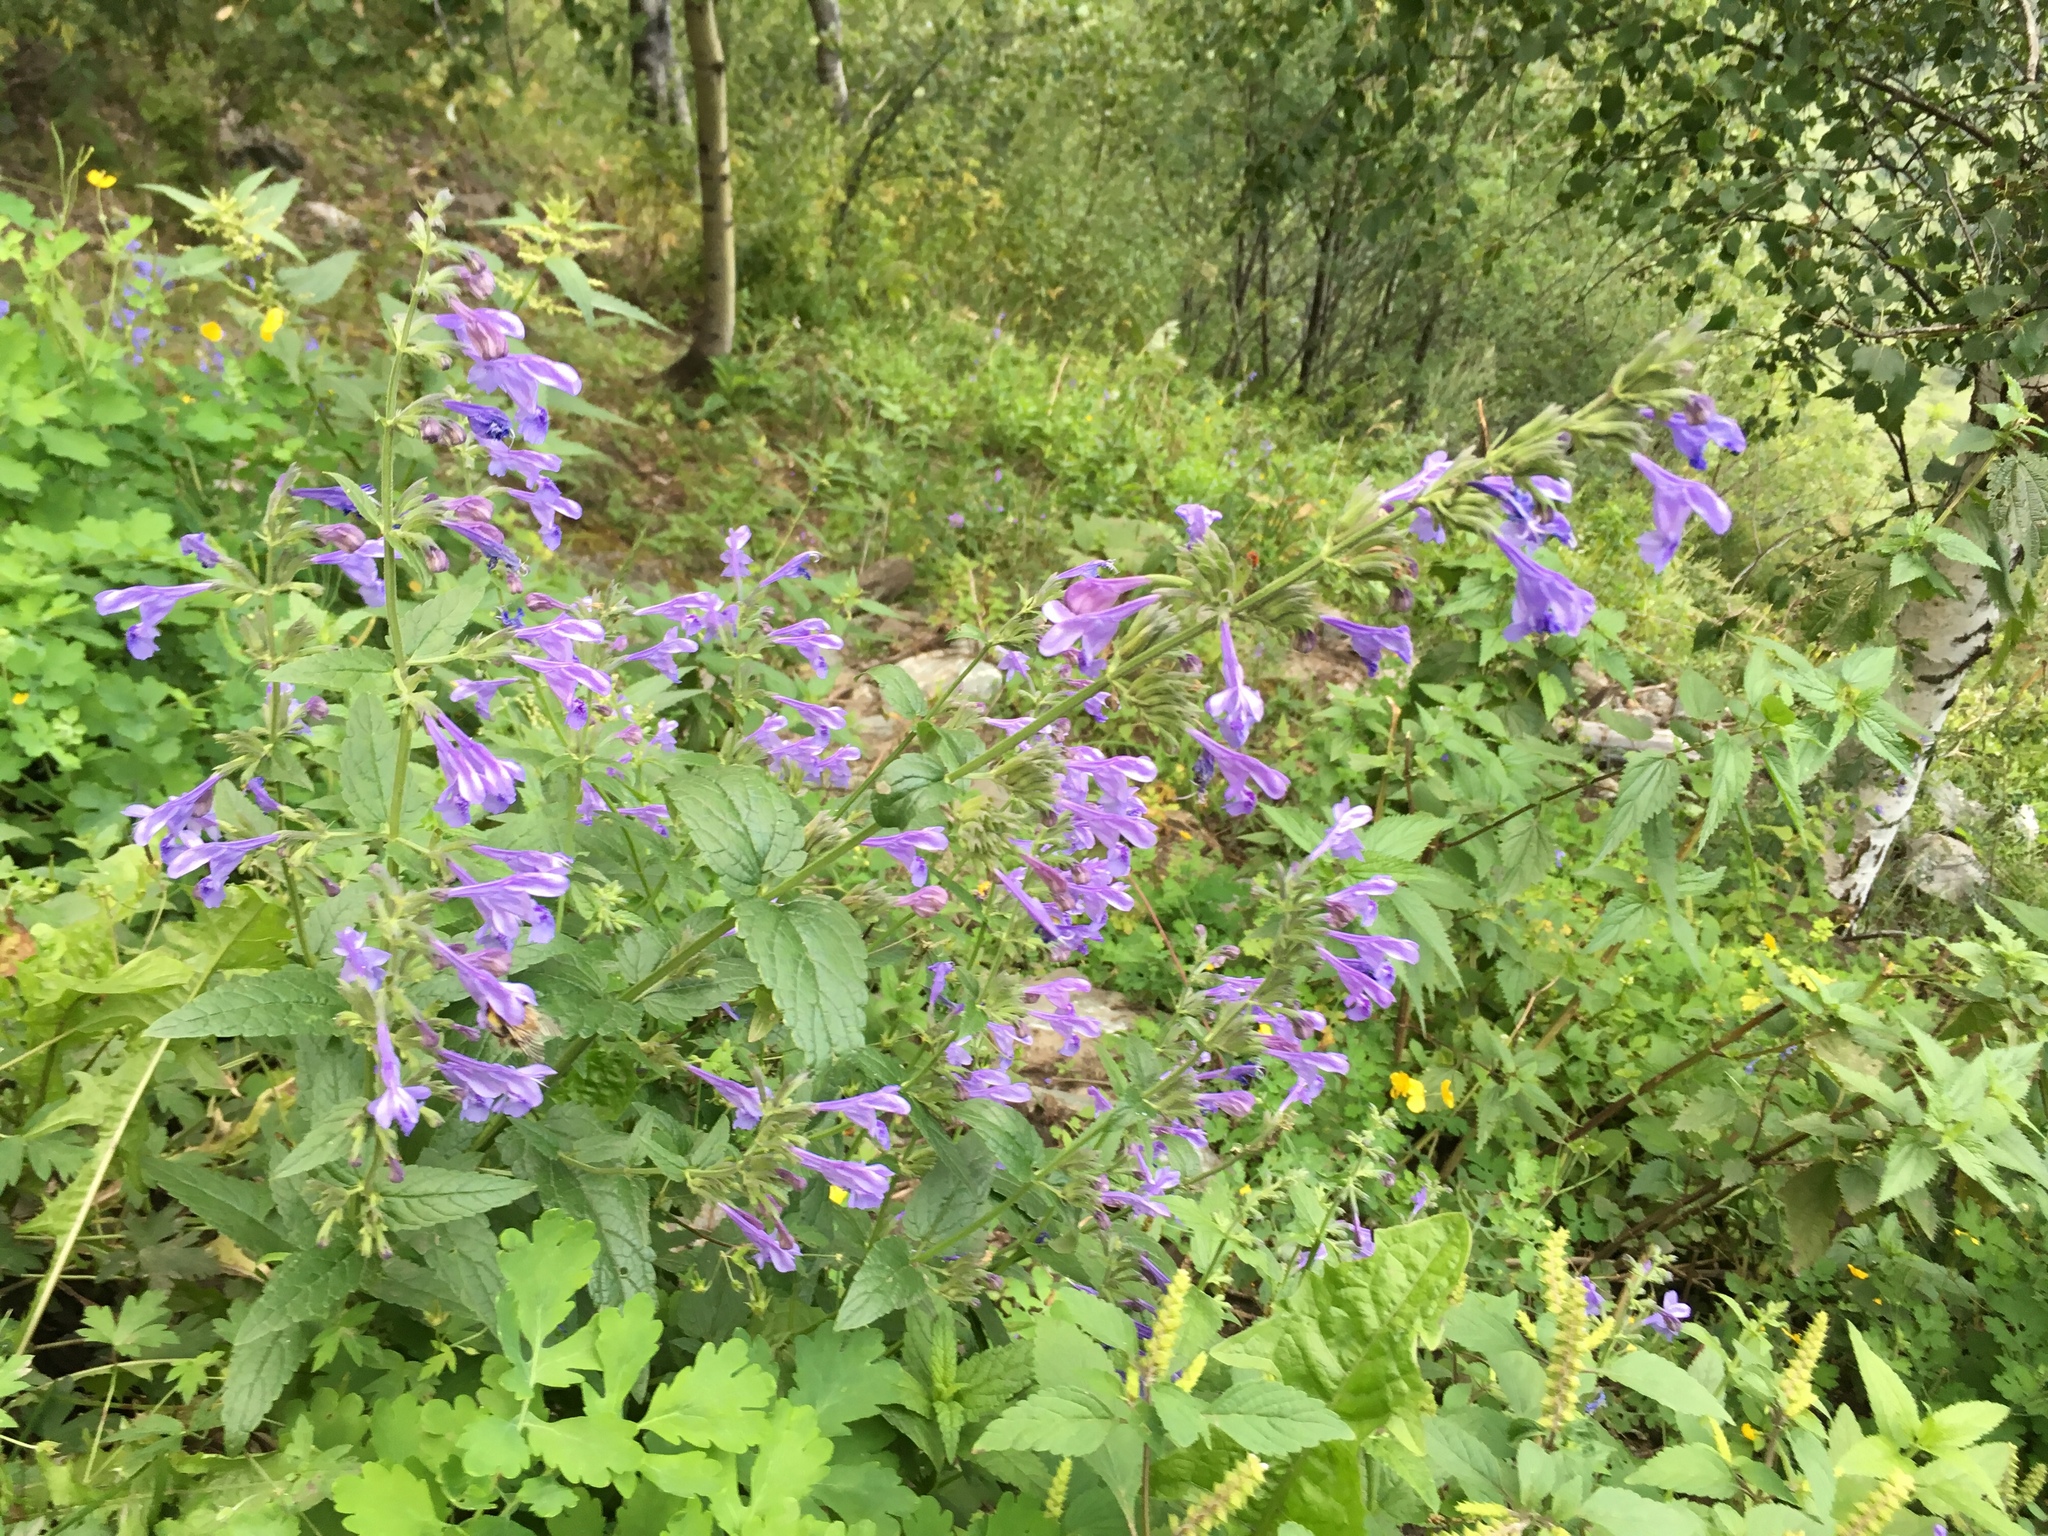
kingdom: Plantae
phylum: Tracheophyta
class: Magnoliopsida
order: Lamiales
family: Lamiaceae
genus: Nepeta
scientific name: Nepeta sibirica
